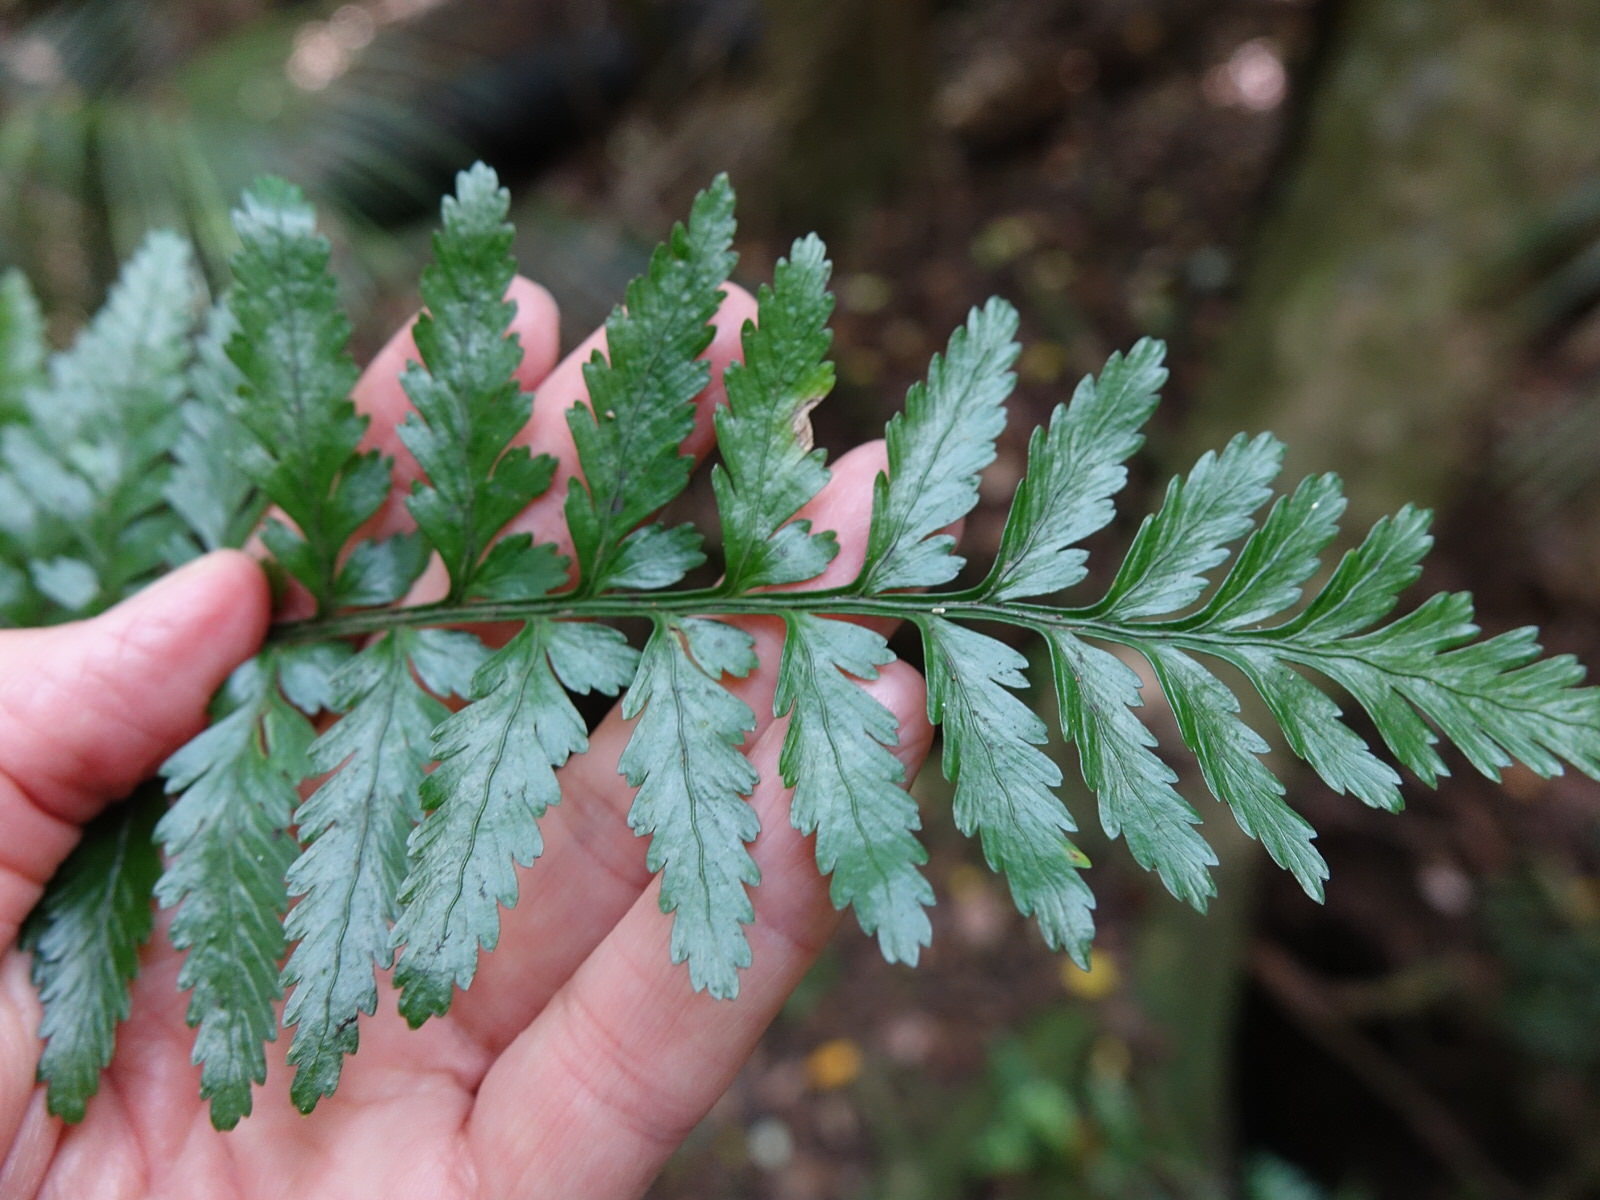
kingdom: Plantae
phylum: Tracheophyta
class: Polypodiopsida
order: Polypodiales
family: Aspleniaceae
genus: Asplenium
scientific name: Asplenium lamprophyllum
